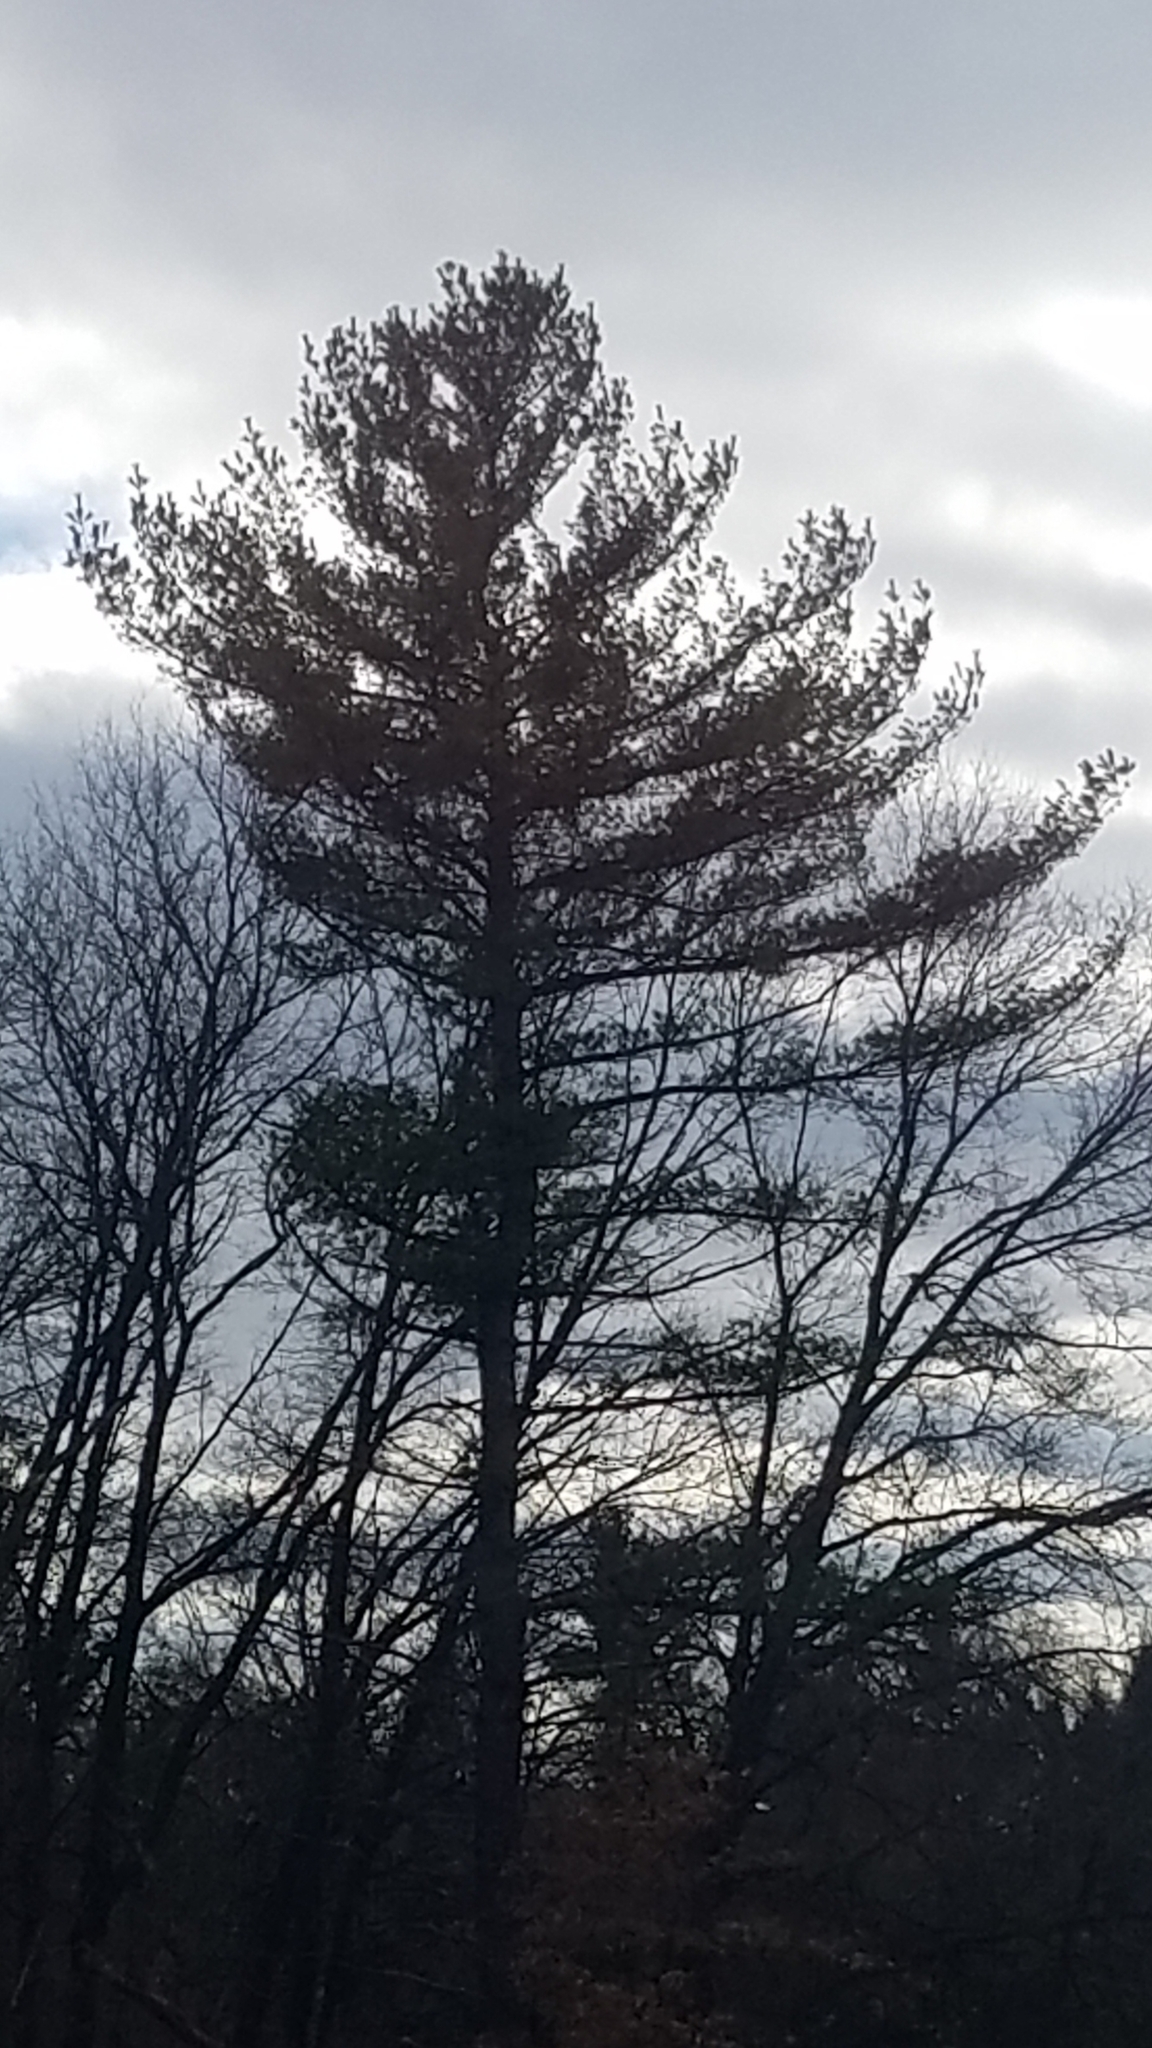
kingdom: Plantae
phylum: Tracheophyta
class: Pinopsida
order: Pinales
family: Pinaceae
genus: Pinus
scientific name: Pinus strobus
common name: Weymouth pine
